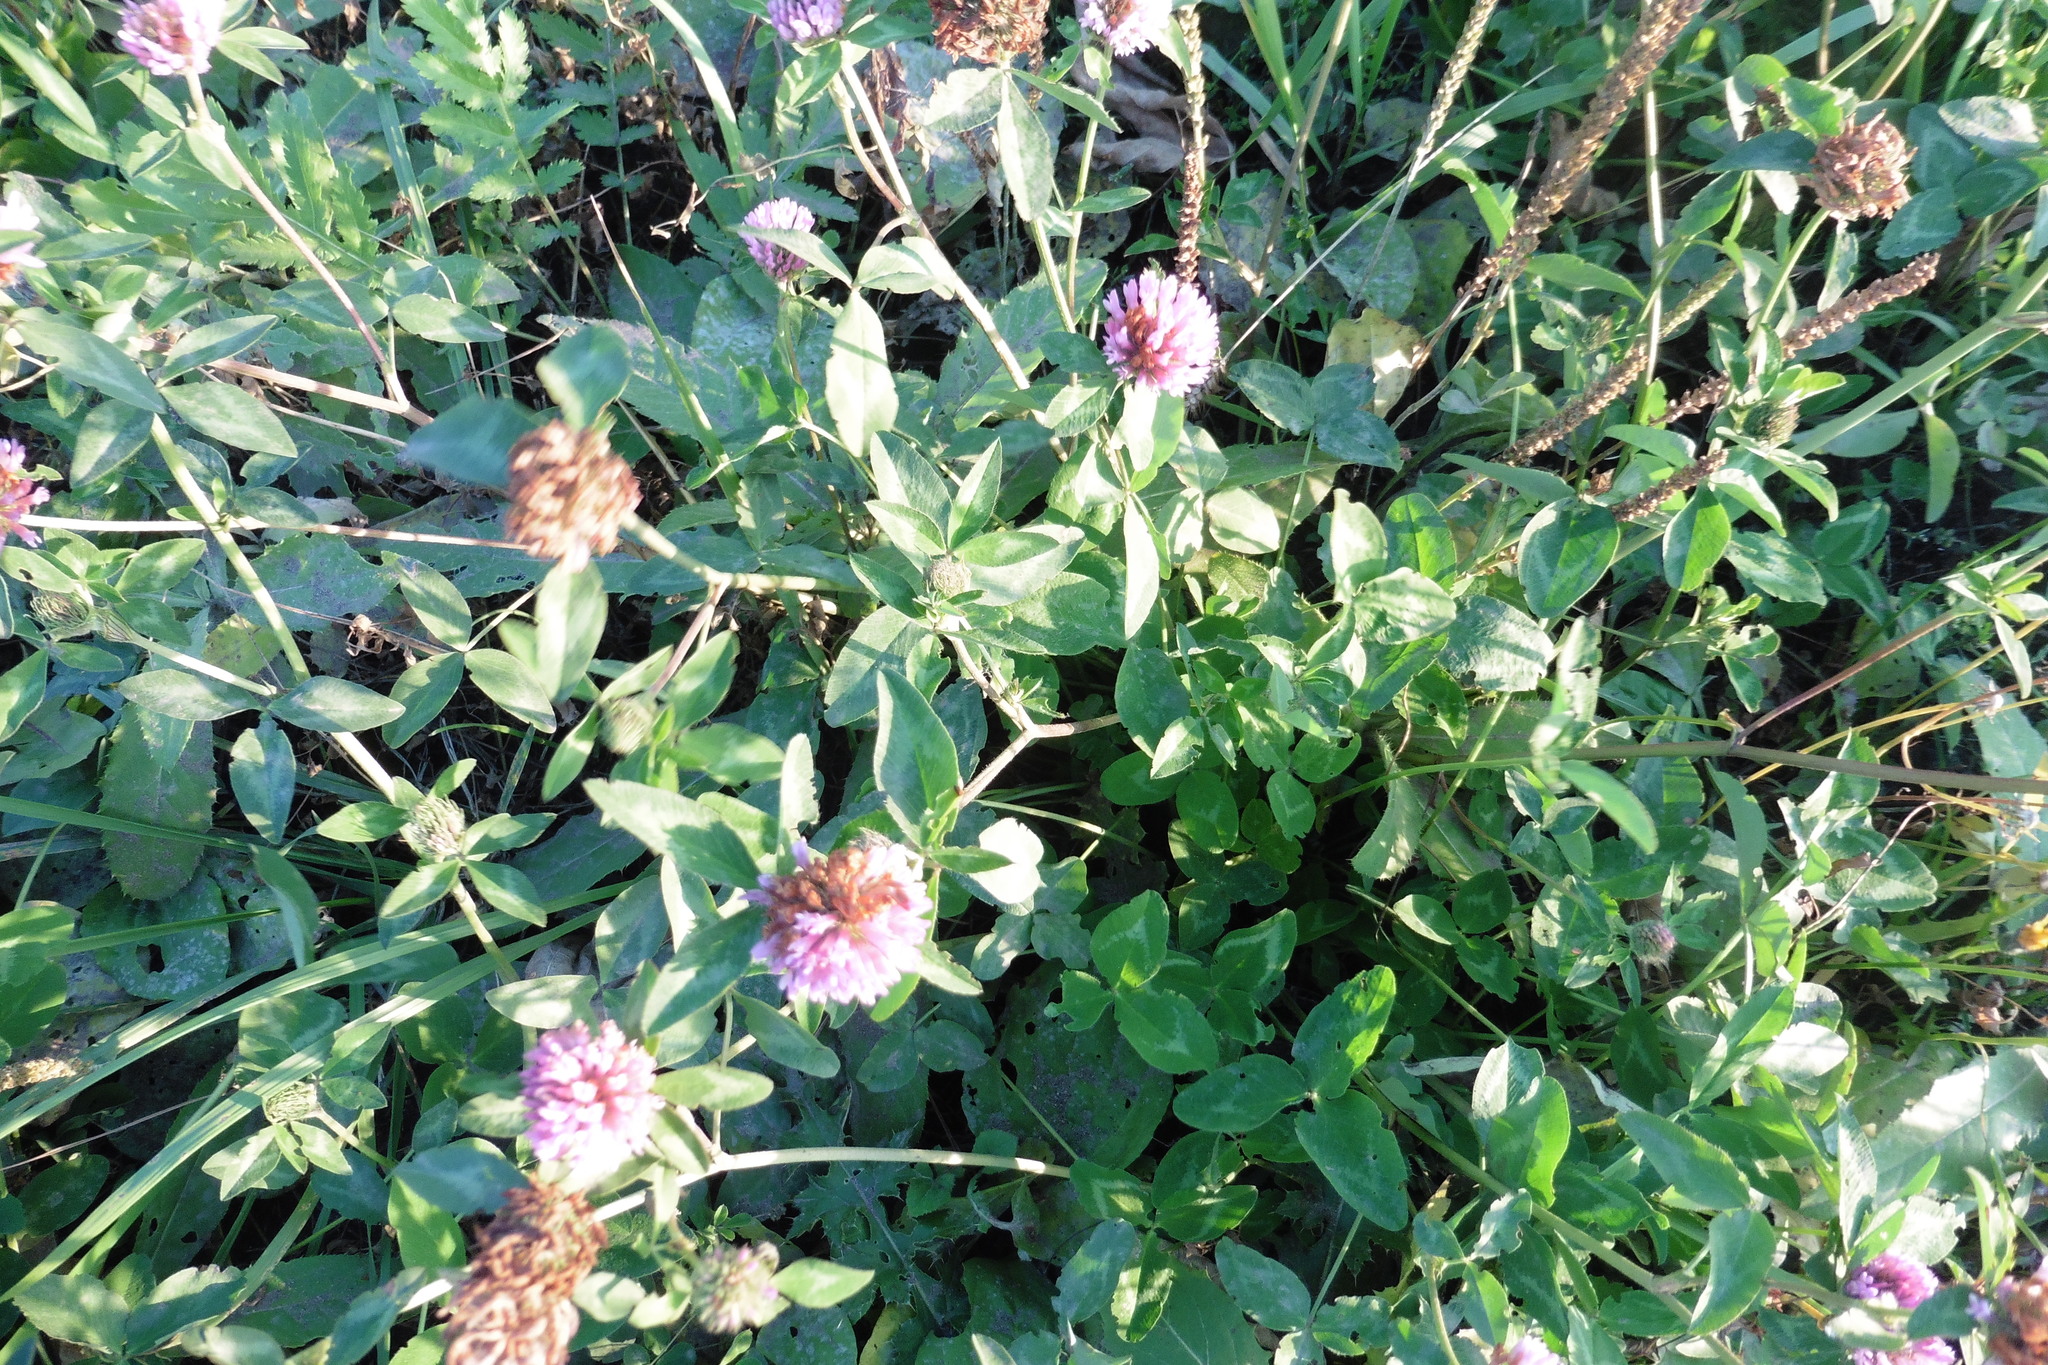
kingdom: Plantae
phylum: Tracheophyta
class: Magnoliopsida
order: Fabales
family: Fabaceae
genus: Trifolium
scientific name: Trifolium pratense
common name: Red clover
